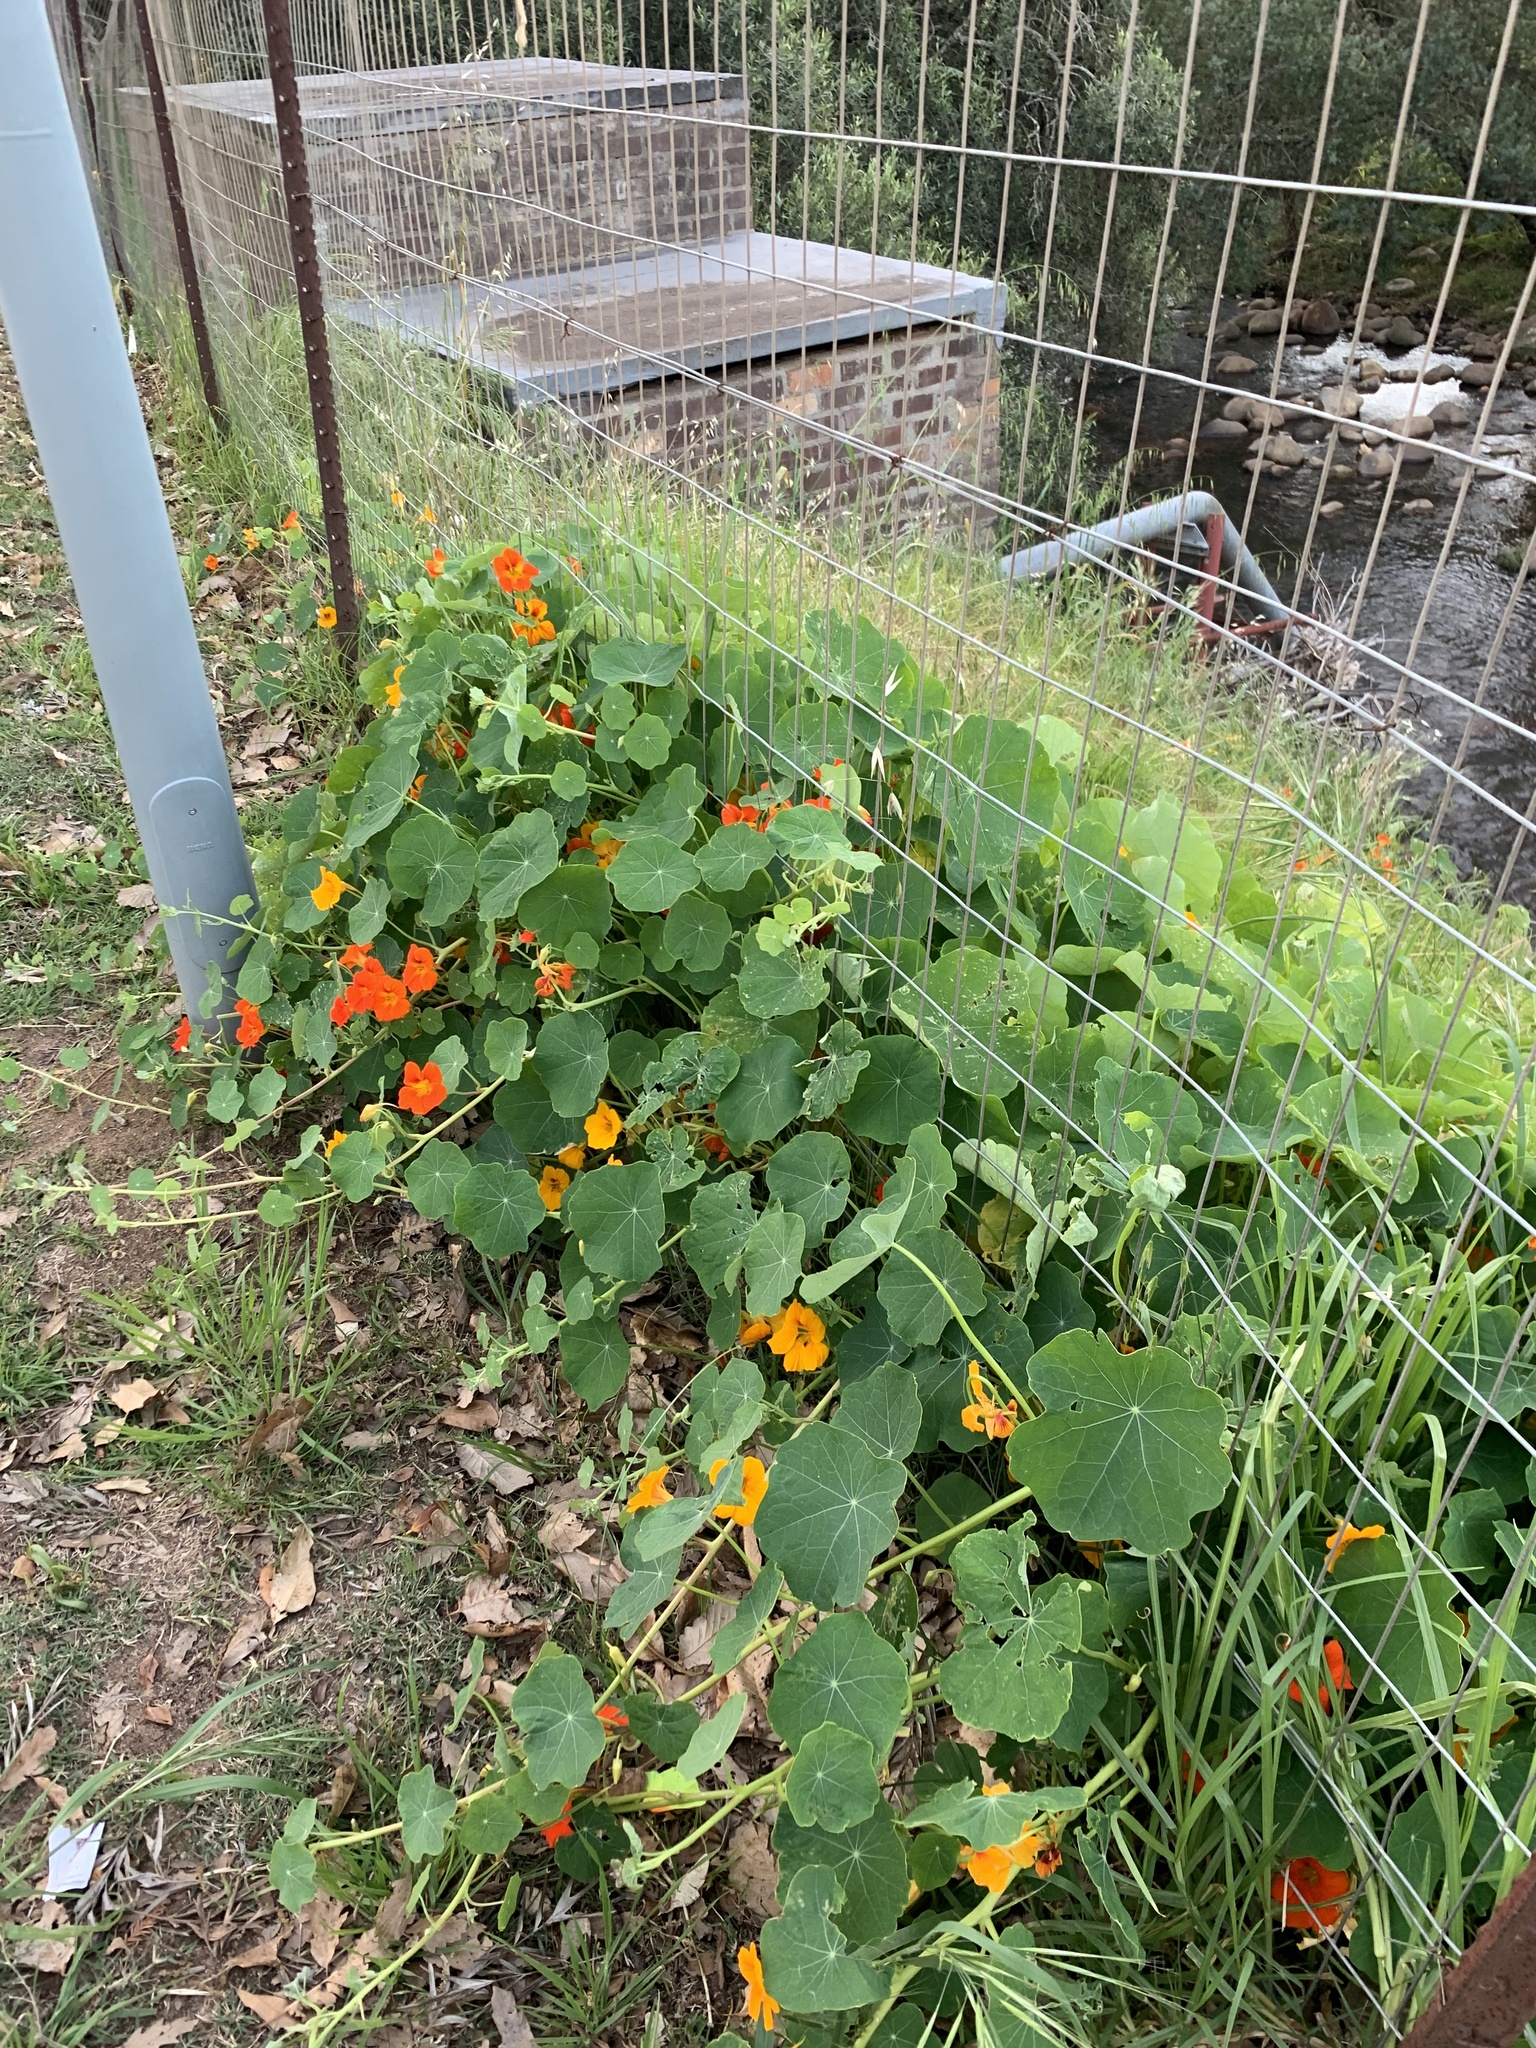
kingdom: Plantae
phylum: Tracheophyta
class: Magnoliopsida
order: Brassicales
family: Tropaeolaceae
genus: Tropaeolum
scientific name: Tropaeolum majus
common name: Nasturtium
